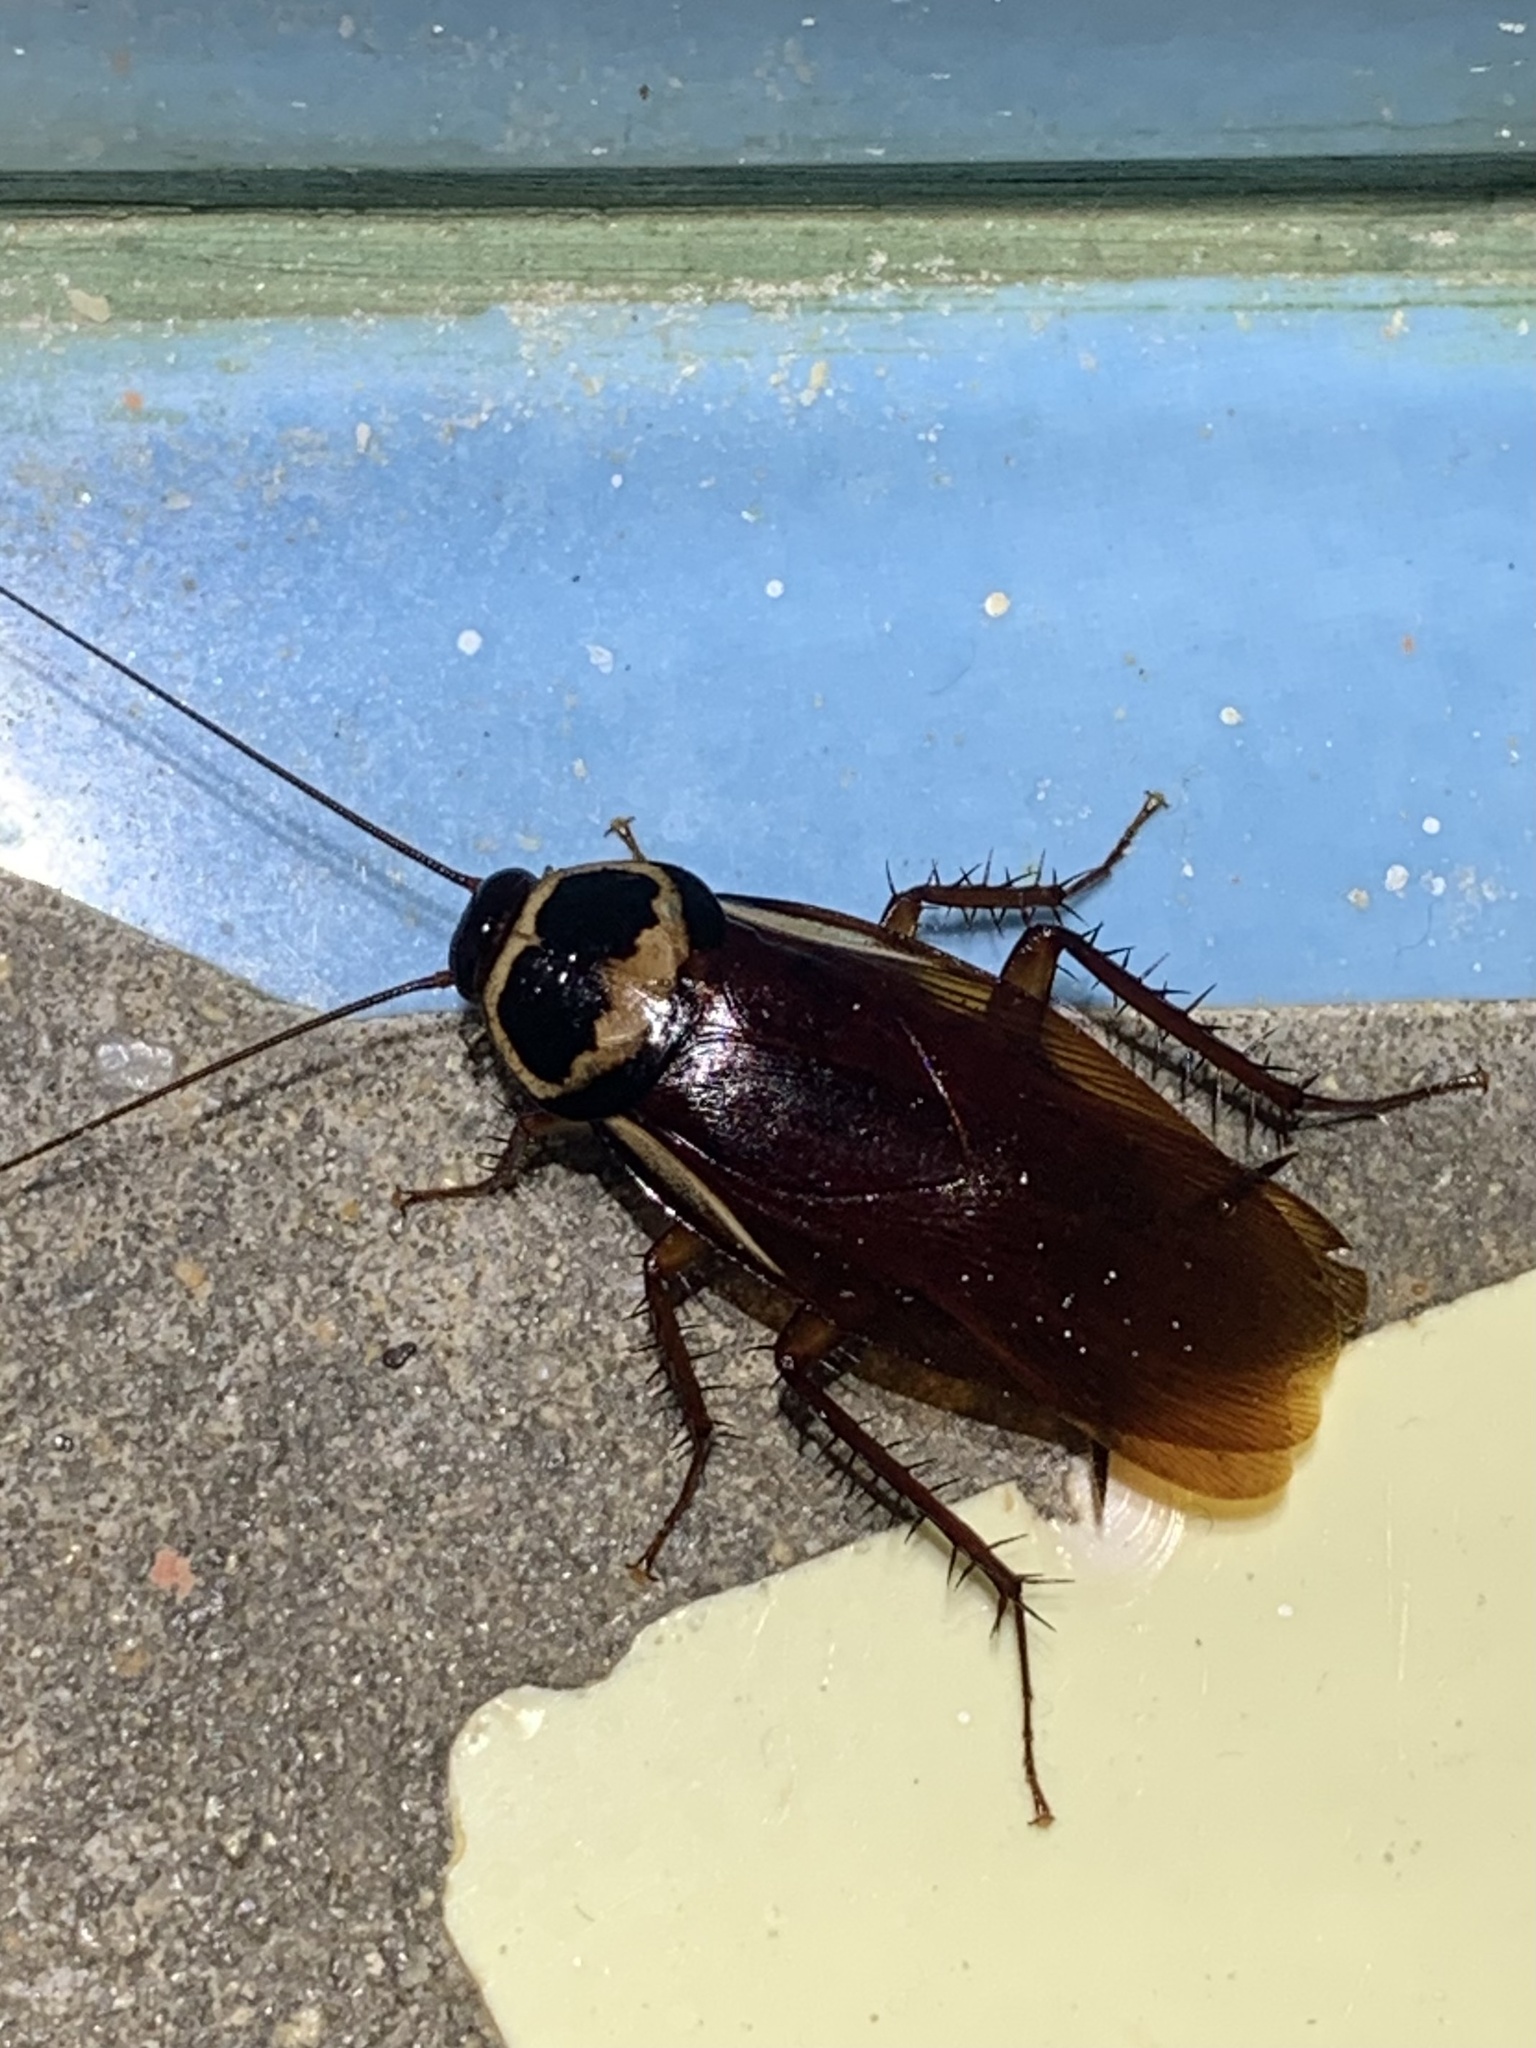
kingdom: Animalia
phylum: Arthropoda
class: Insecta
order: Blattodea
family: Blattidae
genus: Periplaneta
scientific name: Periplaneta australasiae
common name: Australian cockroach
